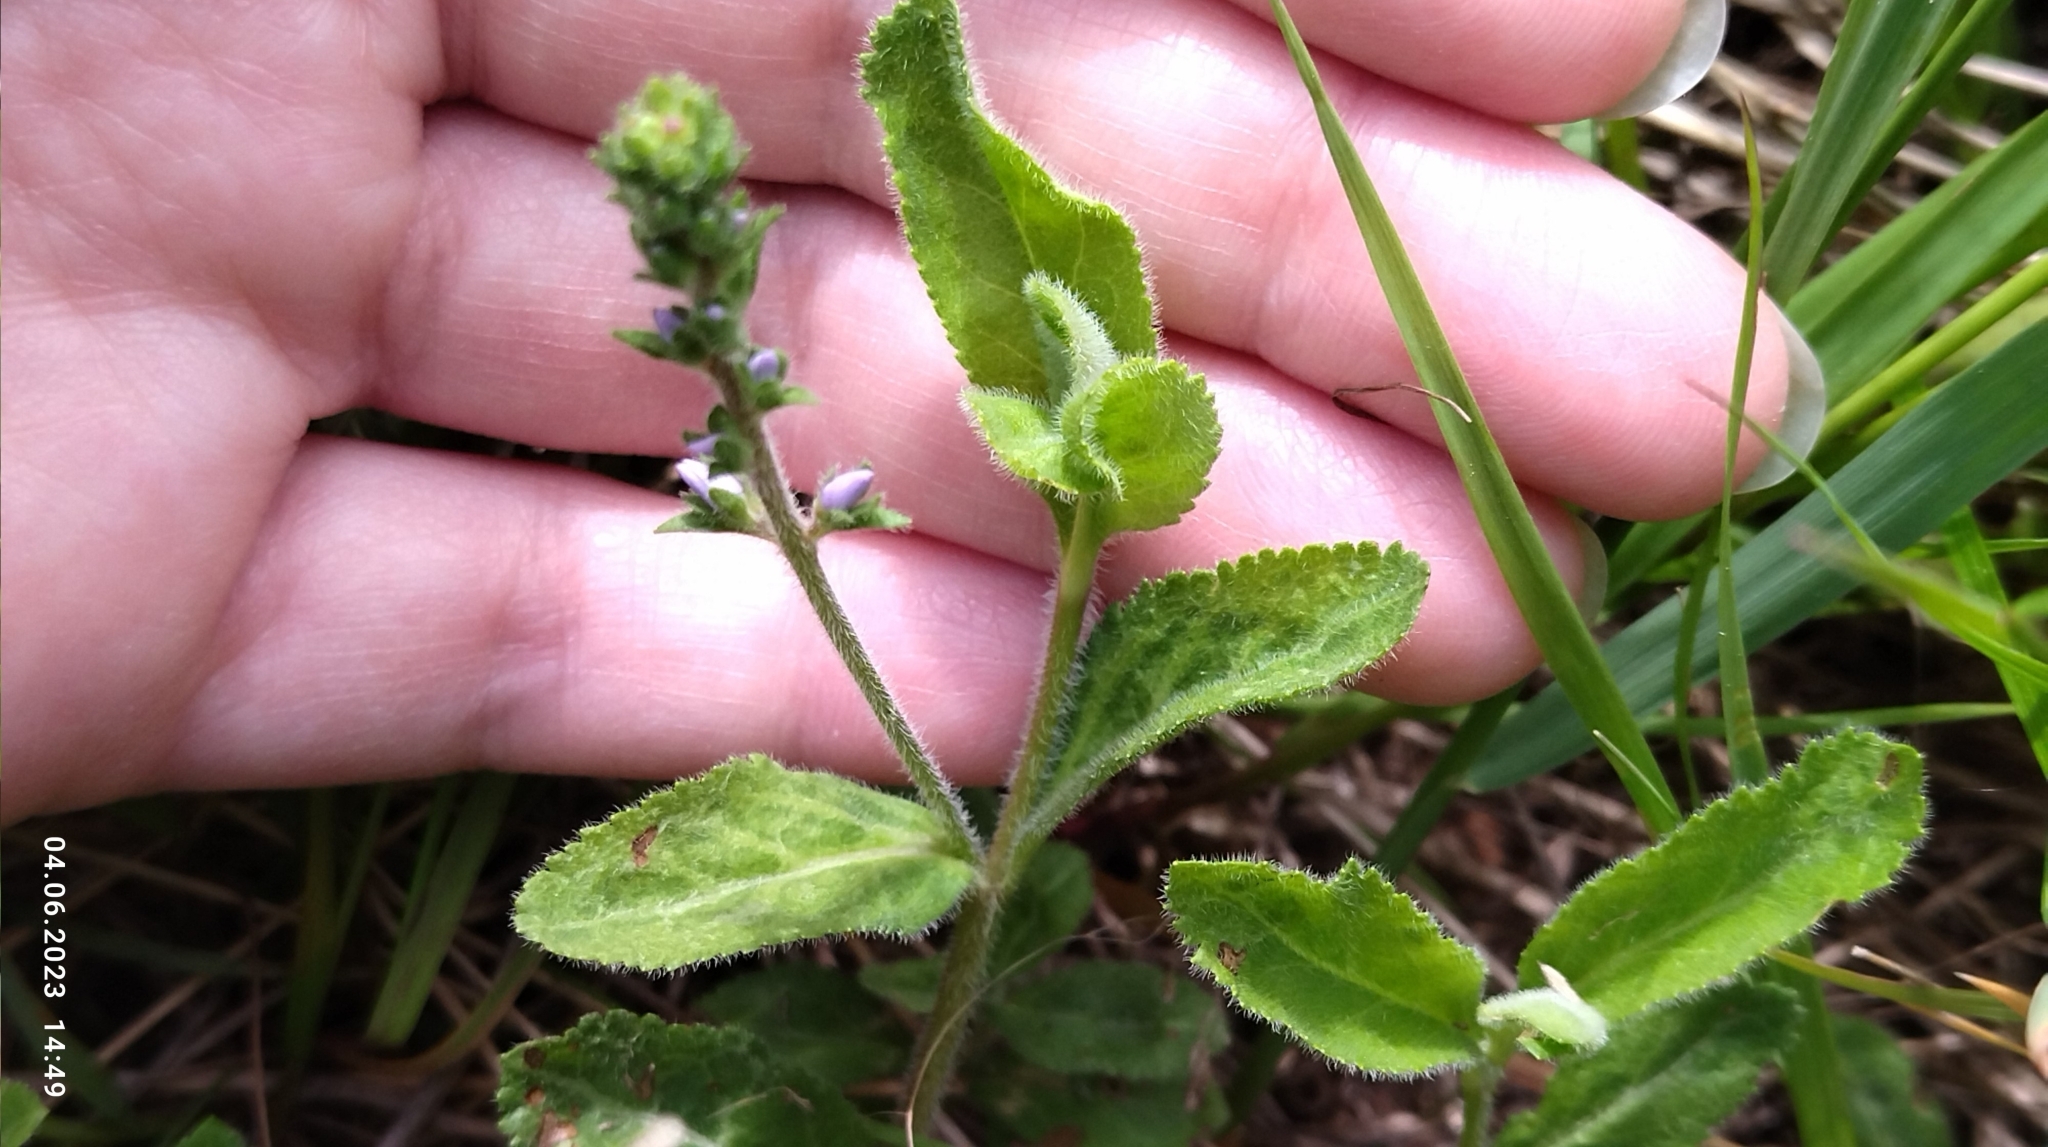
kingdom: Plantae
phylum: Tracheophyta
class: Magnoliopsida
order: Lamiales
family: Plantaginaceae
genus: Veronica
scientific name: Veronica officinalis
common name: Common speedwell
